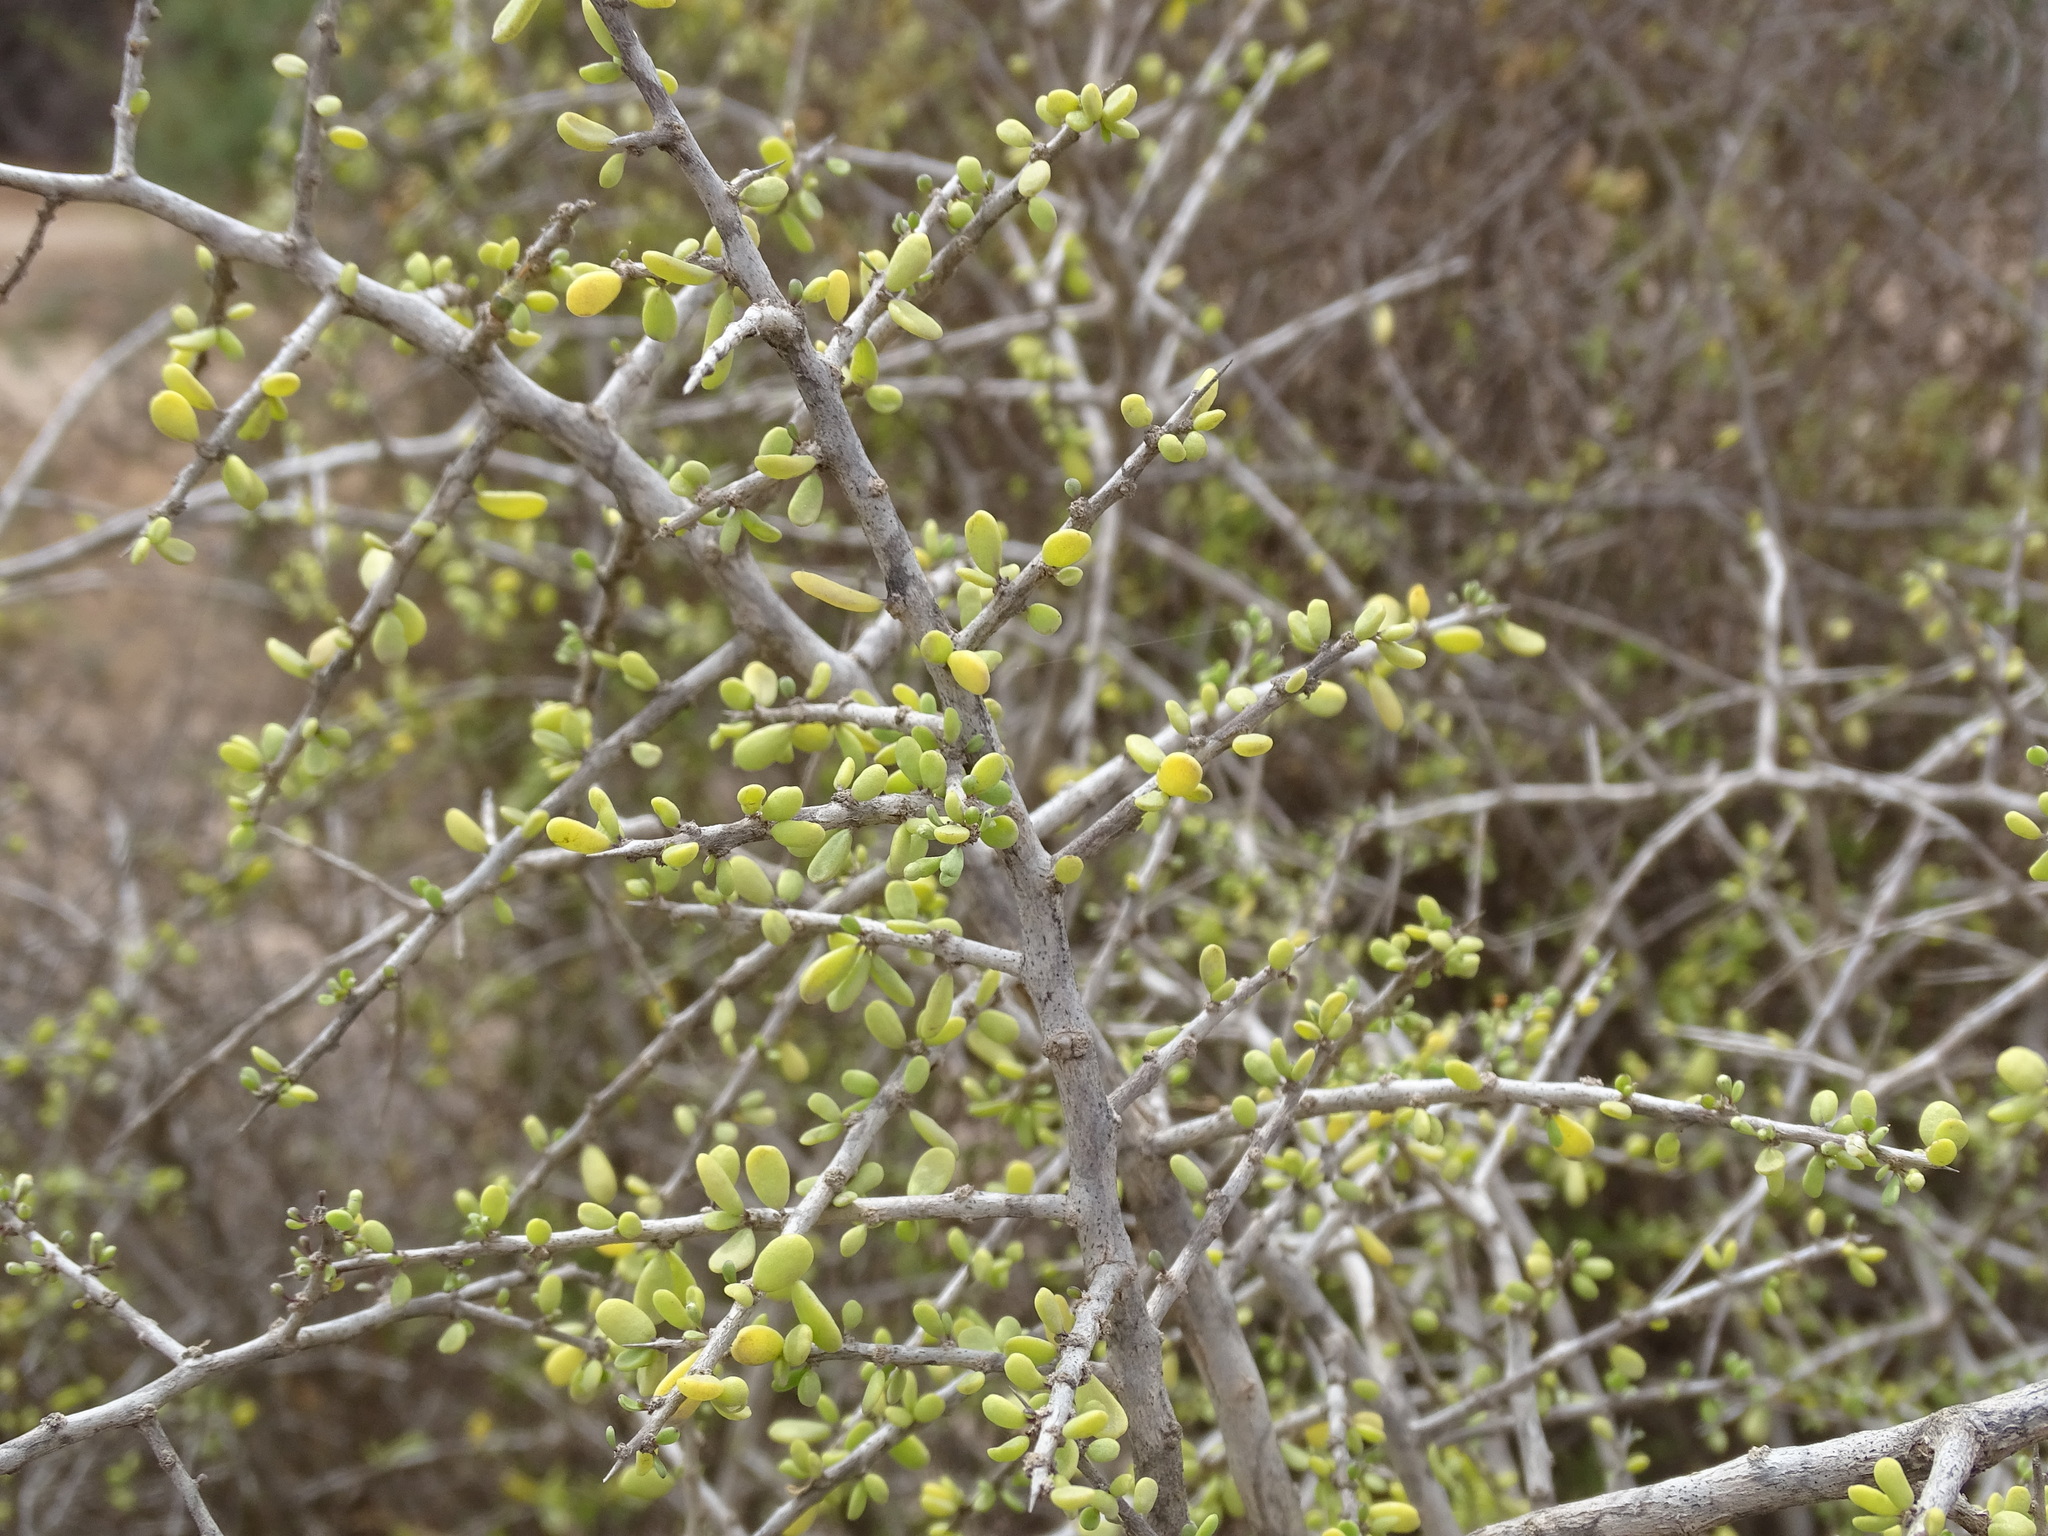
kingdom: Plantae
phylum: Tracheophyta
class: Magnoliopsida
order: Solanales
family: Solanaceae
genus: Lycium
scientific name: Lycium californicum
